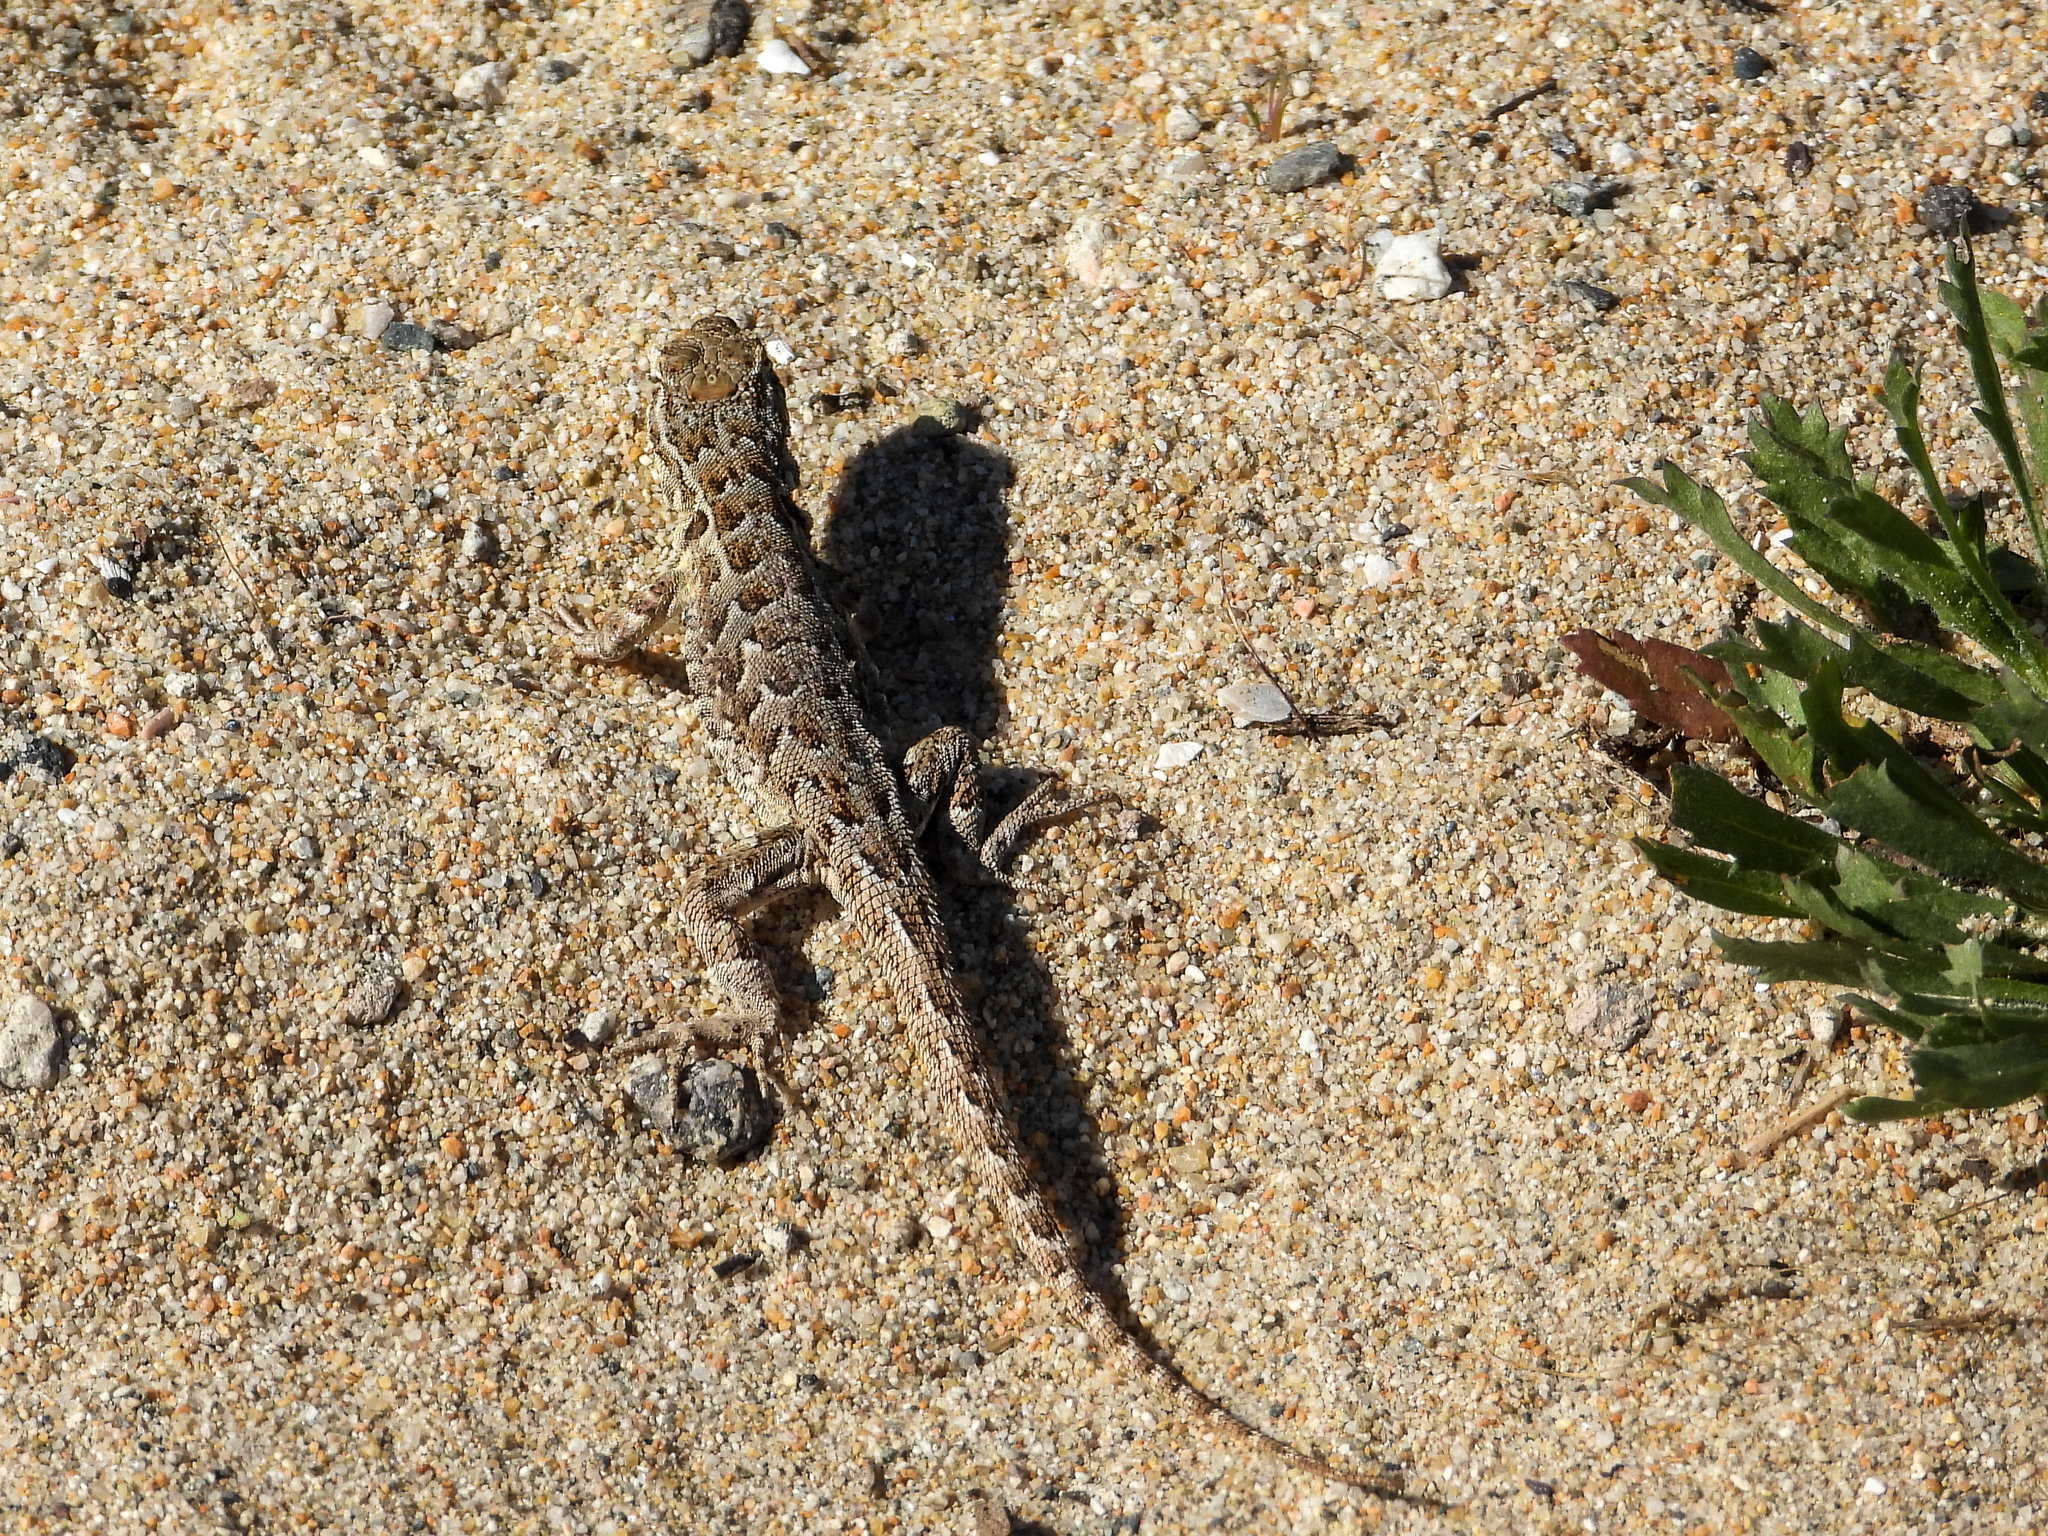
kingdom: Animalia
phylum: Chordata
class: Squamata
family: Phrynosomatidae
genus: Uta
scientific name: Uta stansburiana
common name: Side-blotched lizard
